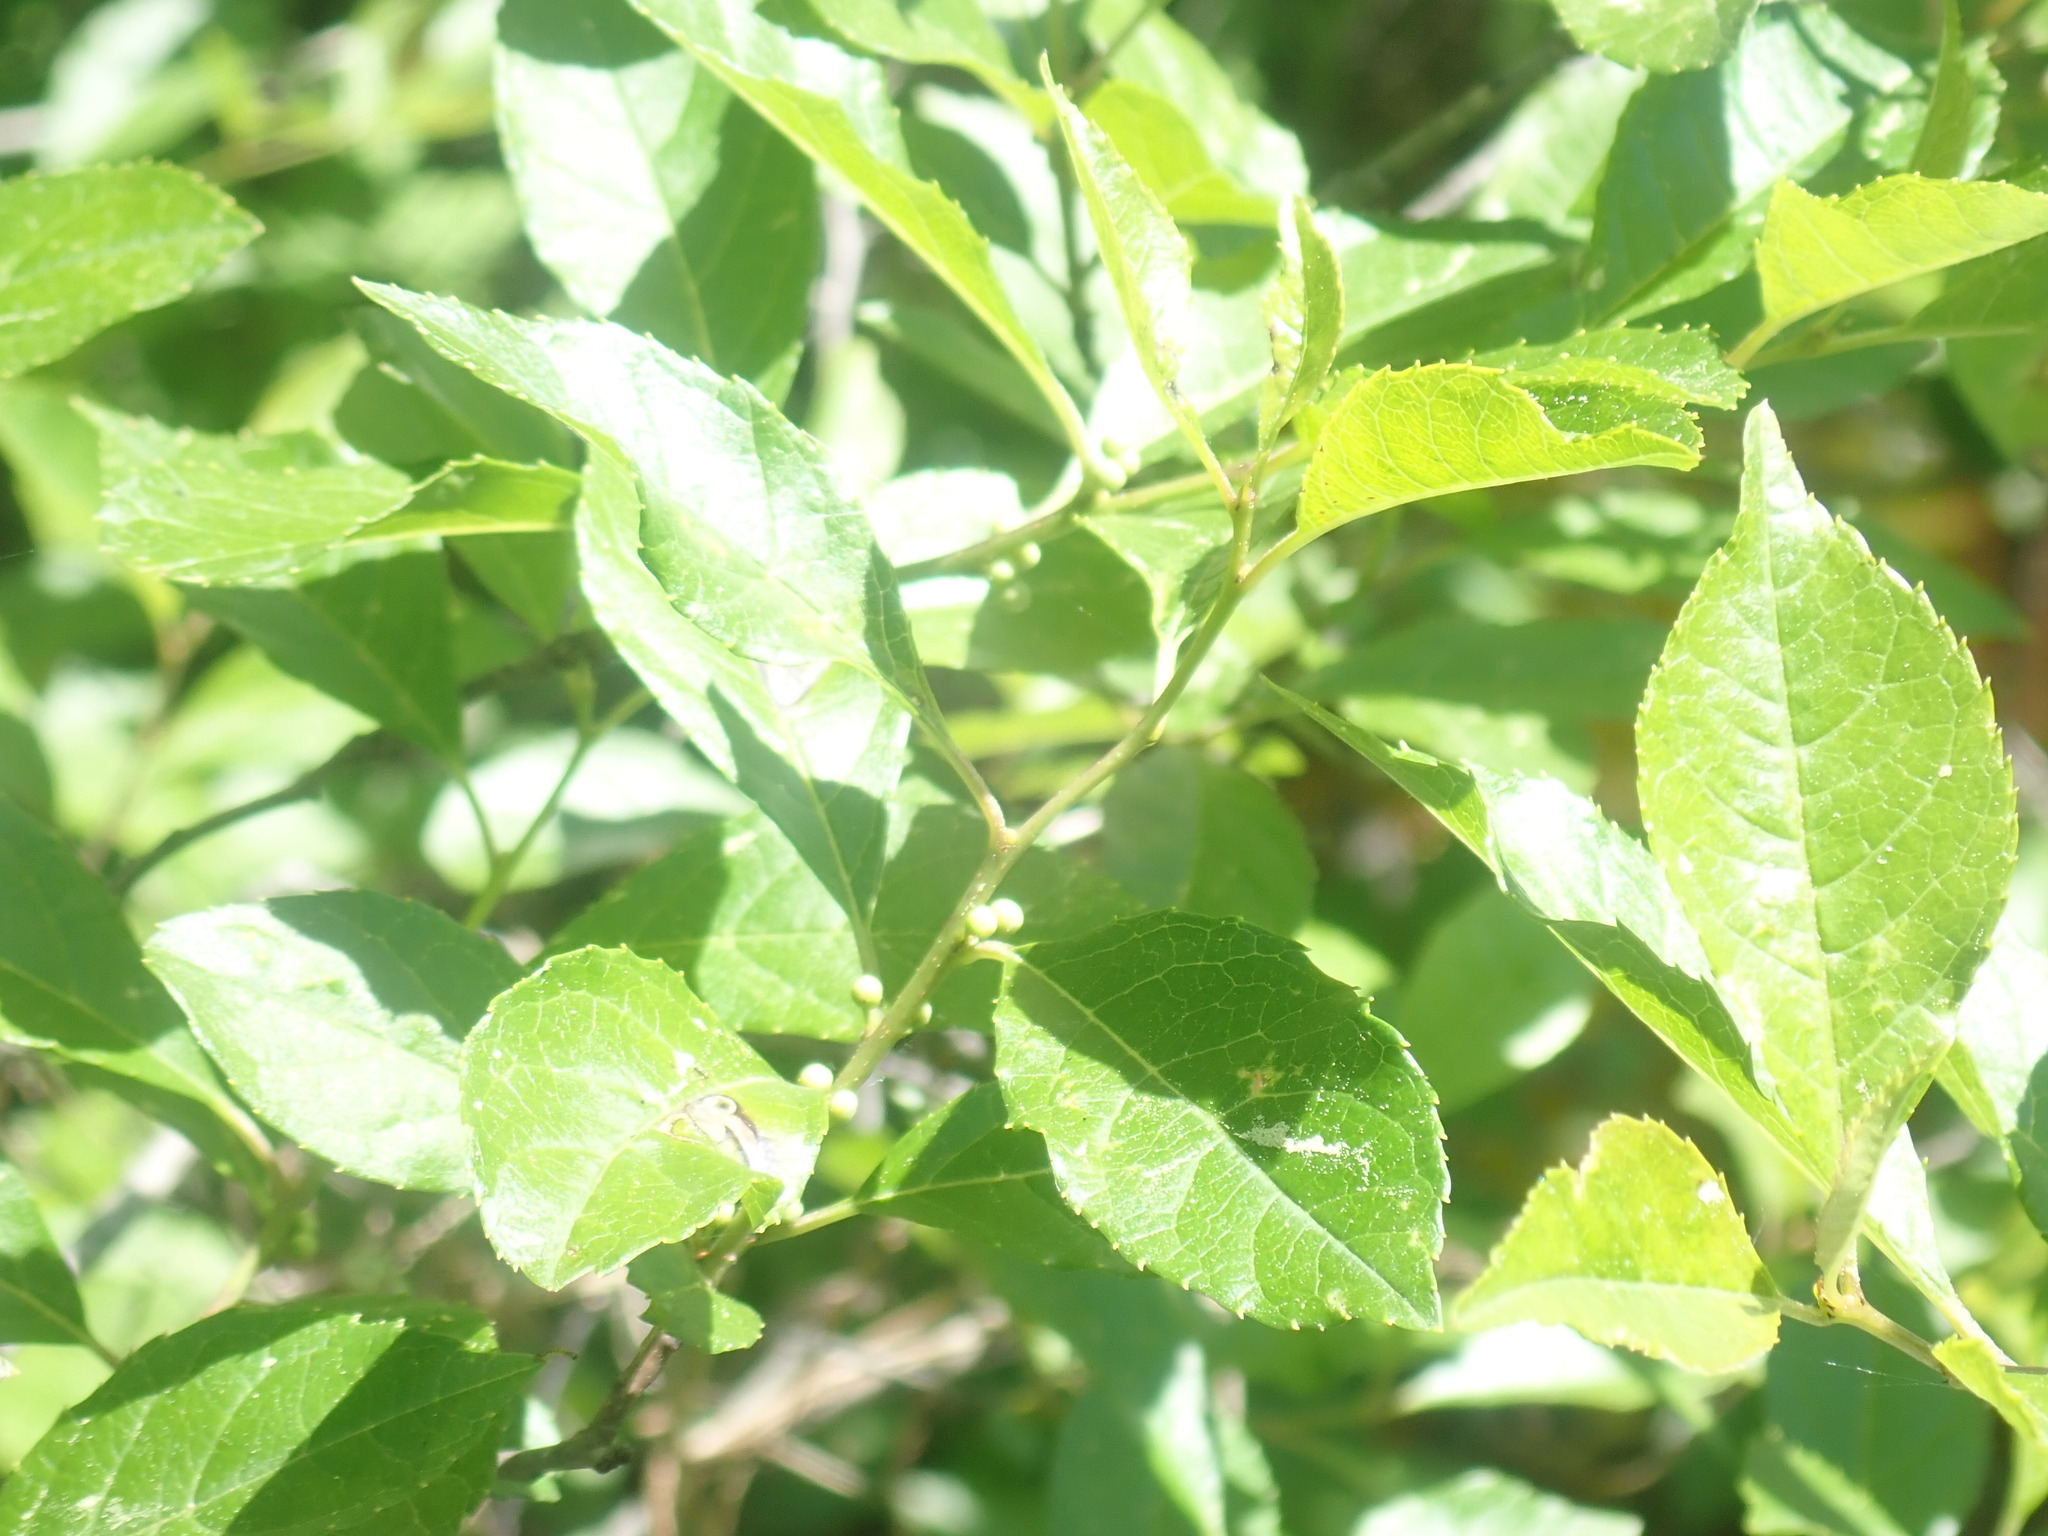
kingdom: Plantae
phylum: Tracheophyta
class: Magnoliopsida
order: Aquifoliales
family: Aquifoliaceae
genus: Ilex
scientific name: Ilex verticillata
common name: Virginia winterberry
